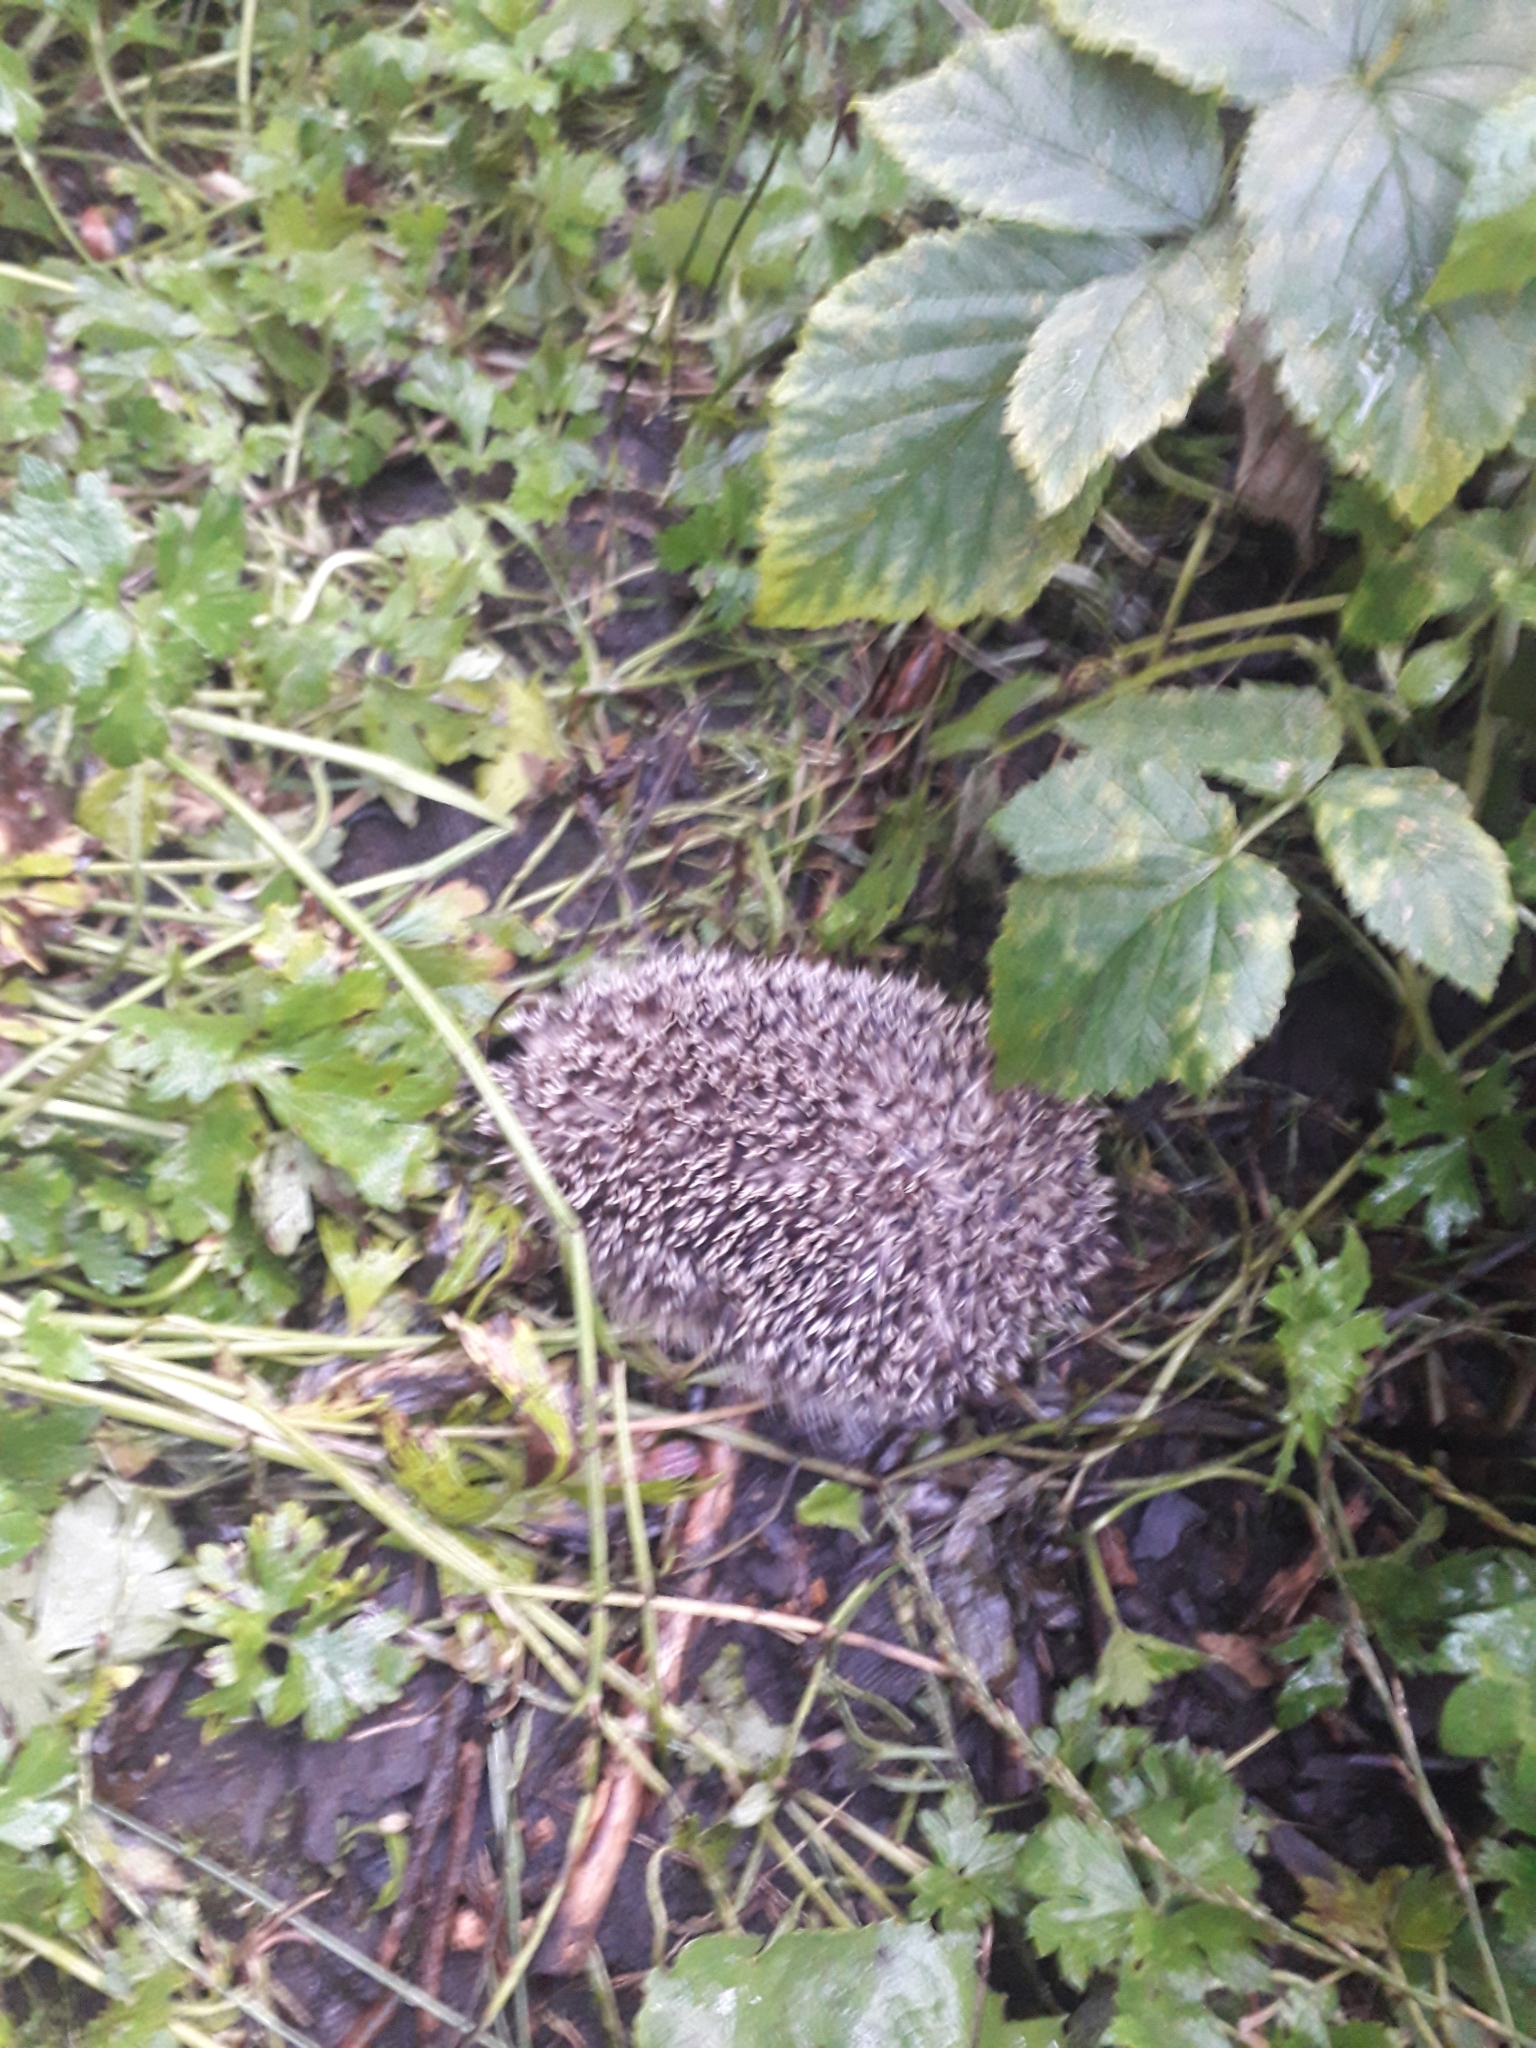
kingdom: Animalia
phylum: Chordata
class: Mammalia
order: Erinaceomorpha
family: Erinaceidae
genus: Erinaceus
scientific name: Erinaceus europaeus
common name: West european hedgehog
